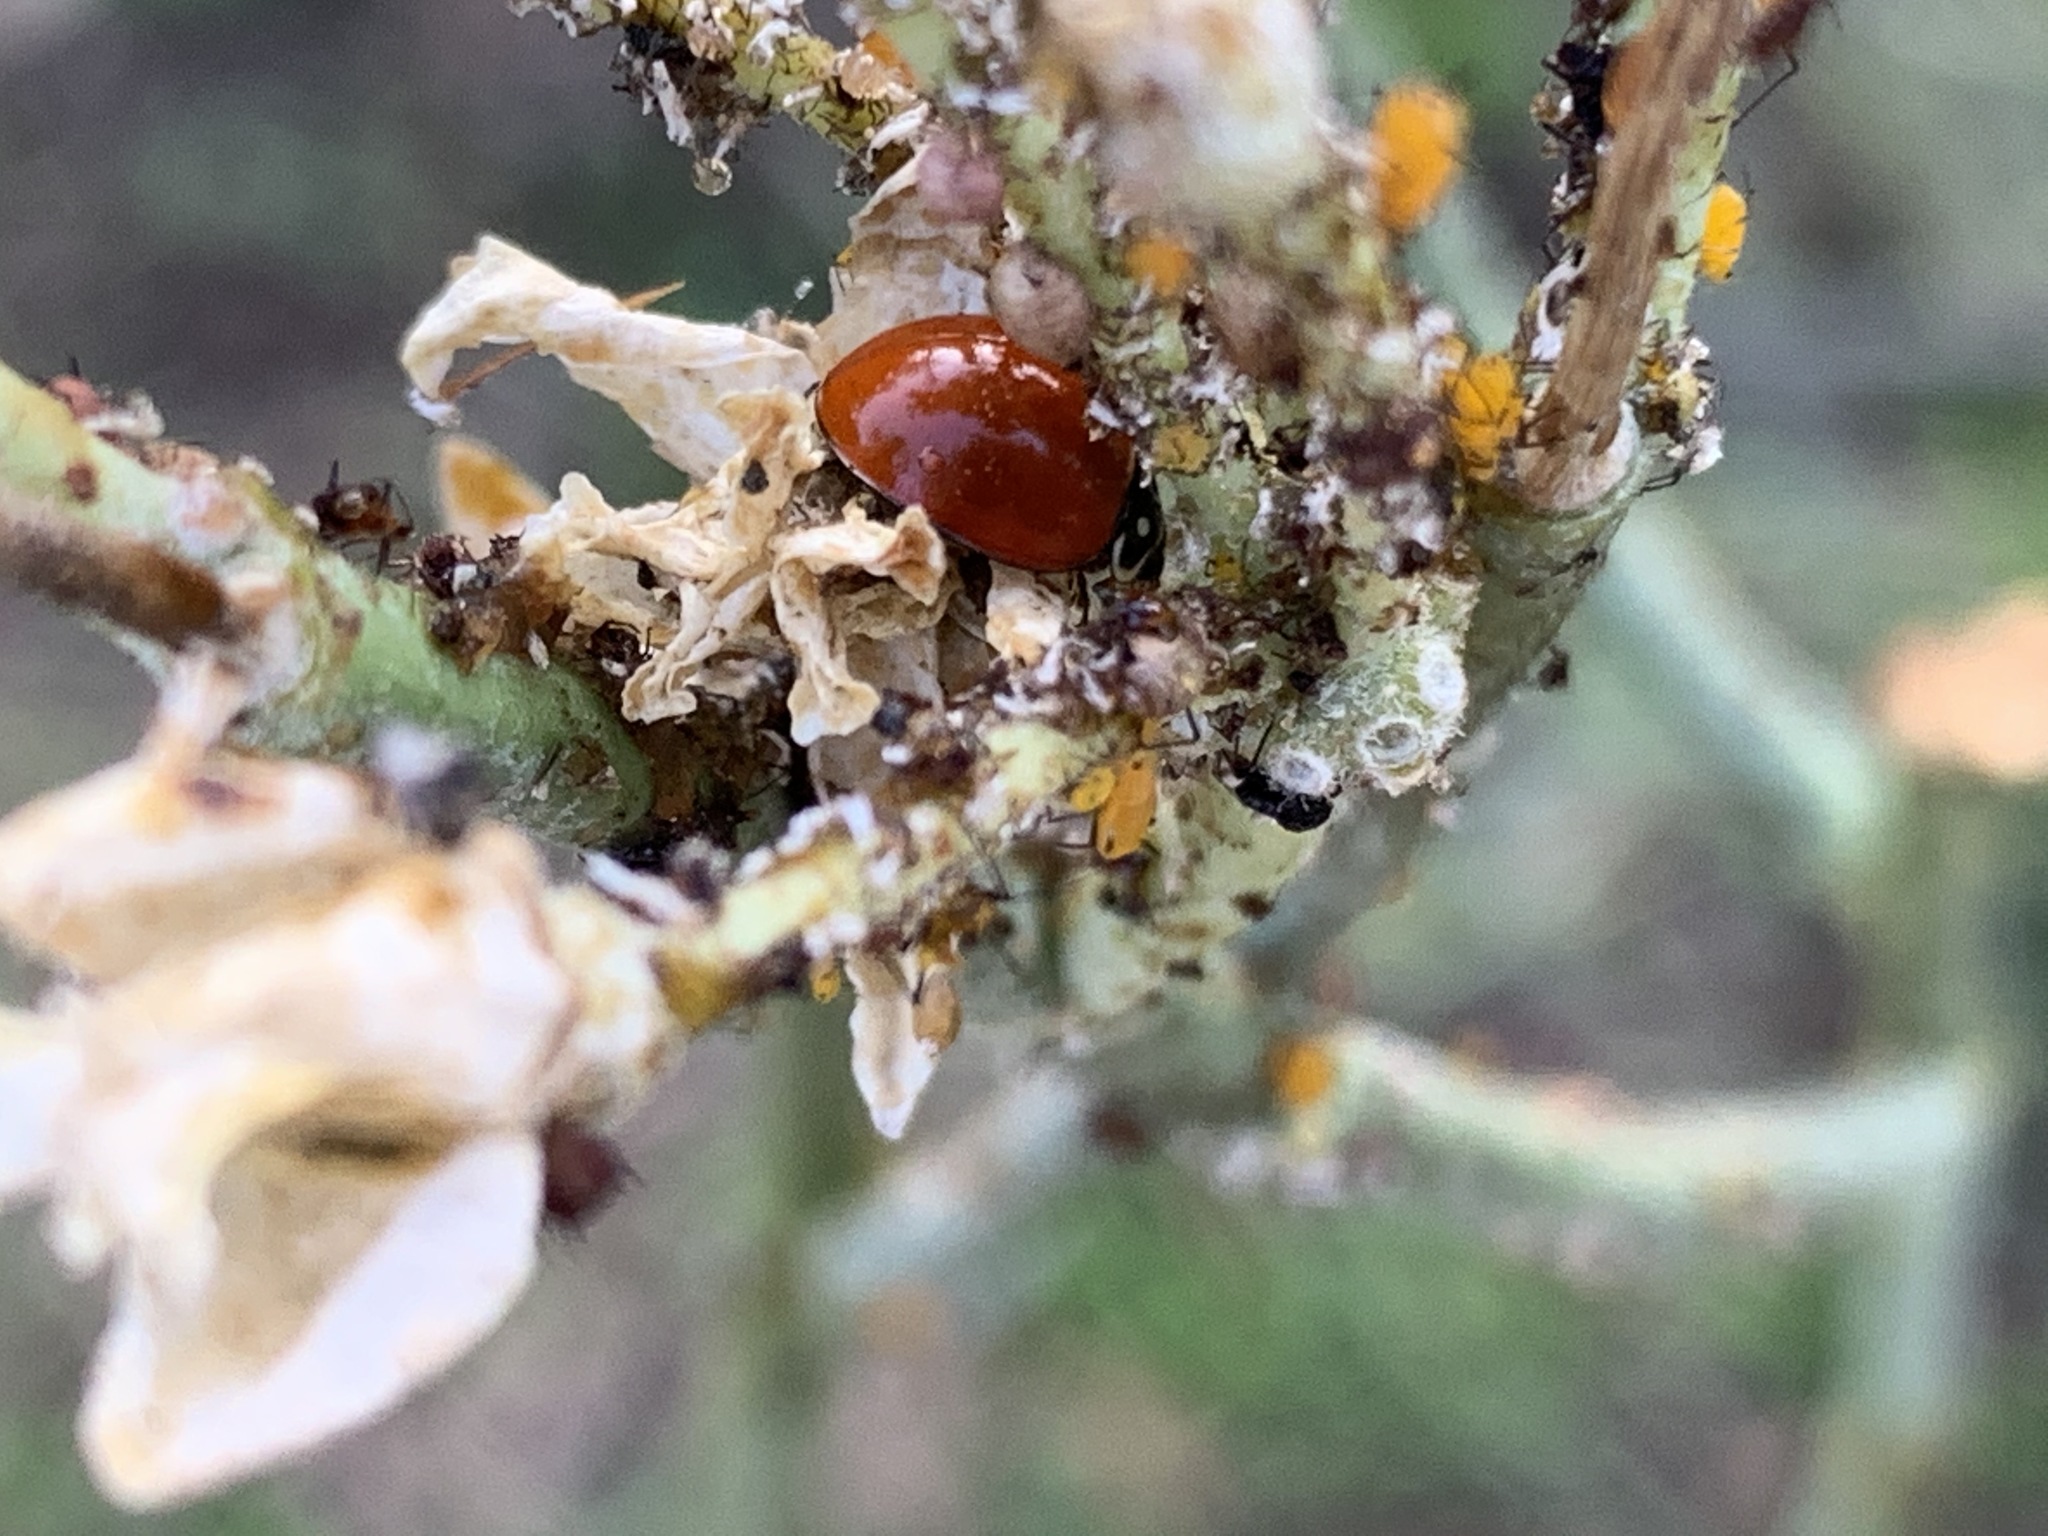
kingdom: Animalia
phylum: Arthropoda
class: Insecta
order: Coleoptera
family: Coccinellidae
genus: Cycloneda
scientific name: Cycloneda sanguinea
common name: Ladybird beetle
